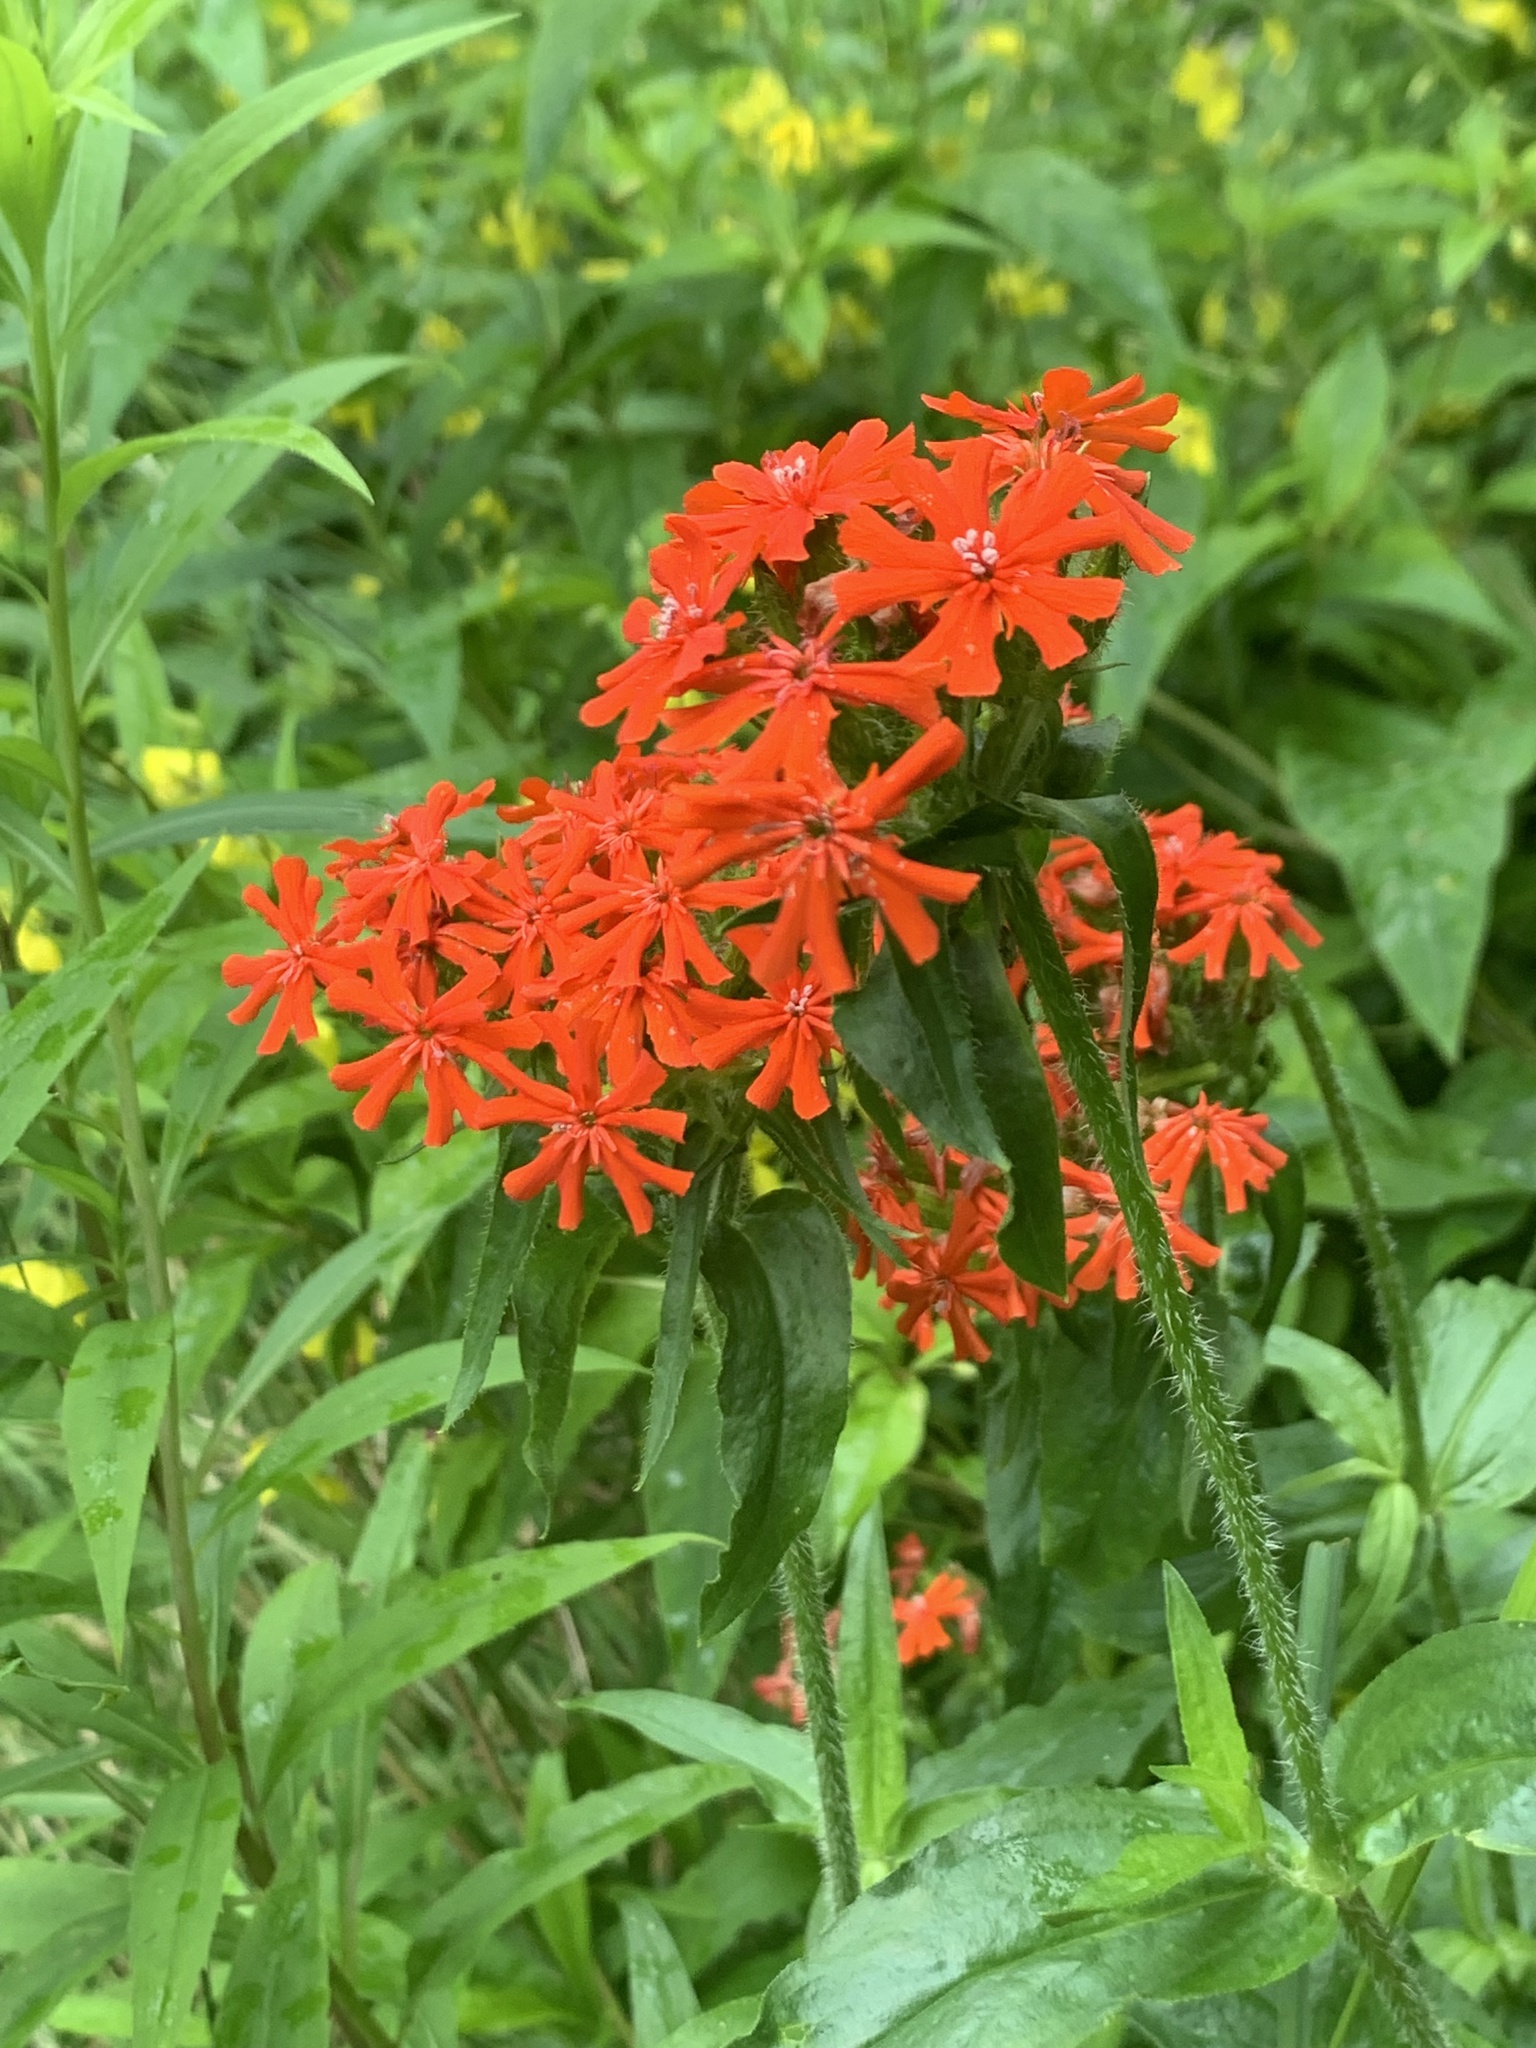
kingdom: Plantae
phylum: Tracheophyta
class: Magnoliopsida
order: Caryophyllales
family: Caryophyllaceae
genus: Silene
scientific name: Silene chalcedonica
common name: Maltese-cross
